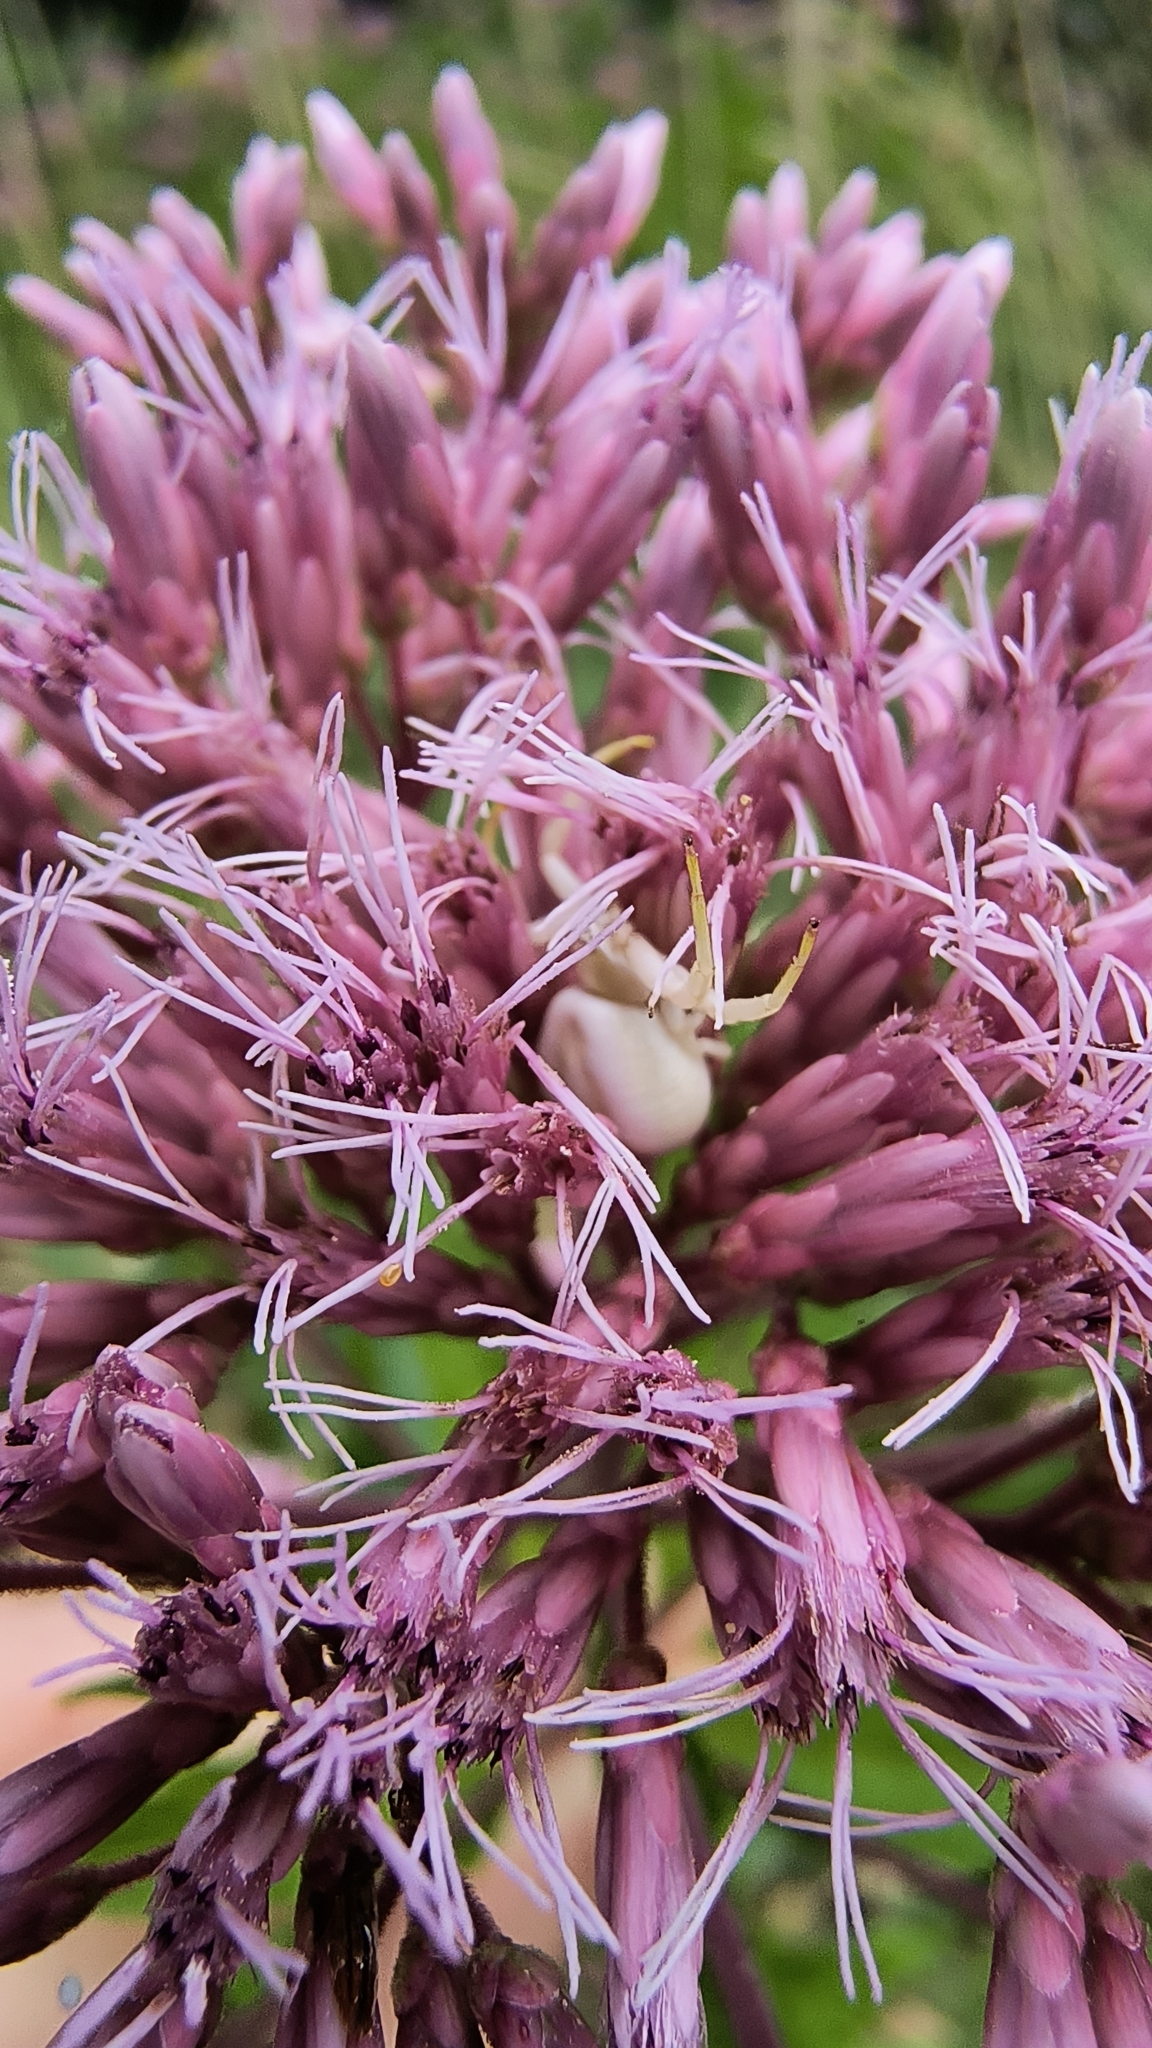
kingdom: Animalia
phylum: Arthropoda
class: Arachnida
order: Araneae
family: Thomisidae
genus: Misumenoides
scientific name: Misumenoides formosipes
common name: White-banded crab spider
